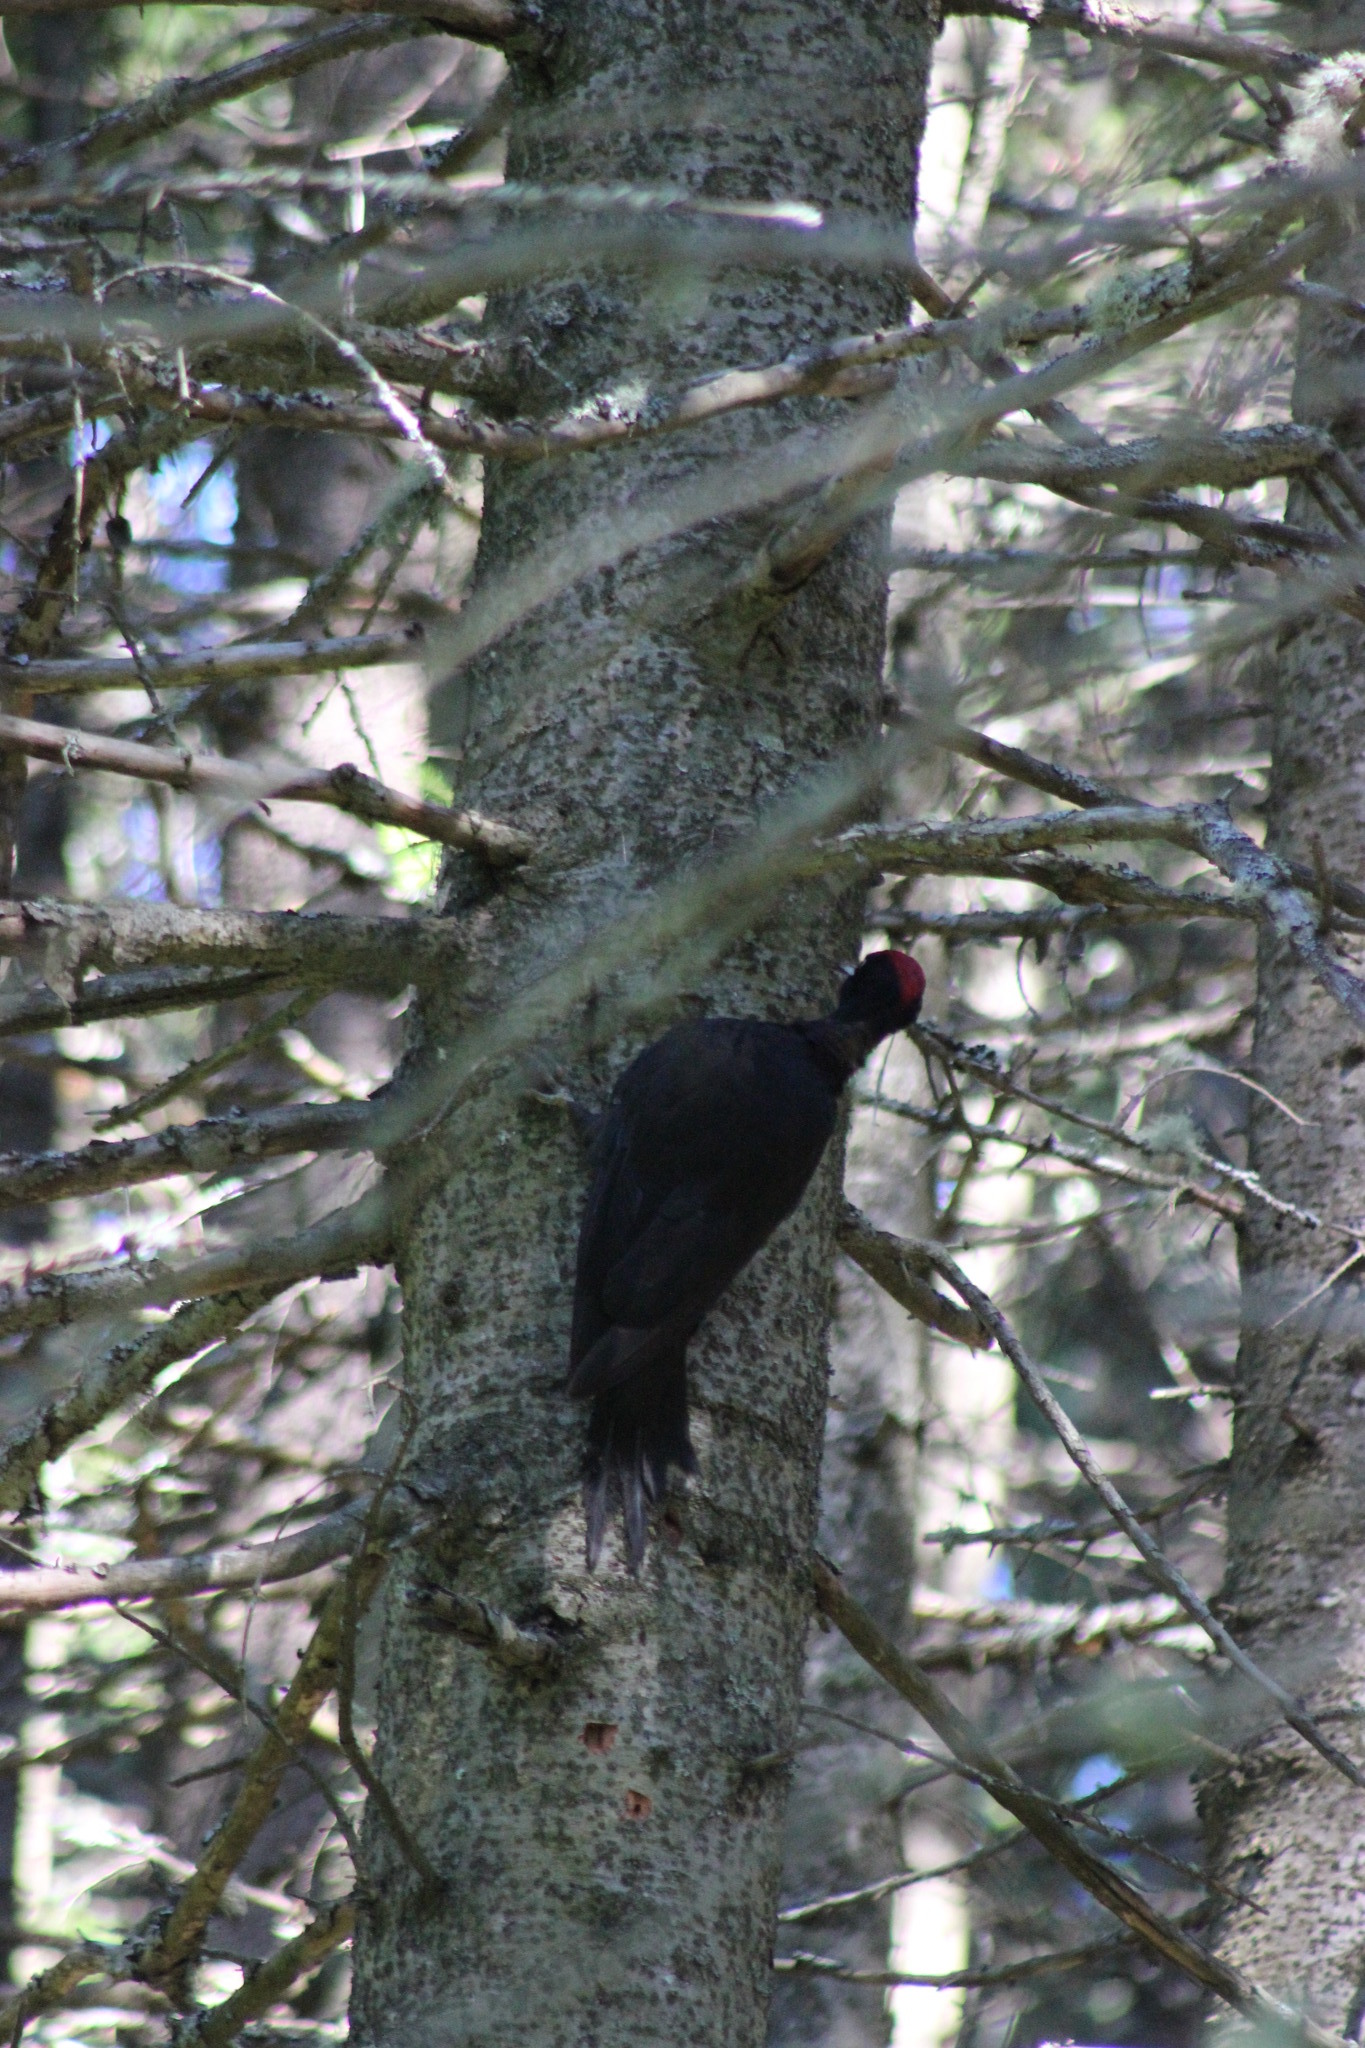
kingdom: Animalia
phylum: Chordata
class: Aves
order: Piciformes
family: Picidae
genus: Dryocopus
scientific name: Dryocopus martius
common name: Black woodpecker
